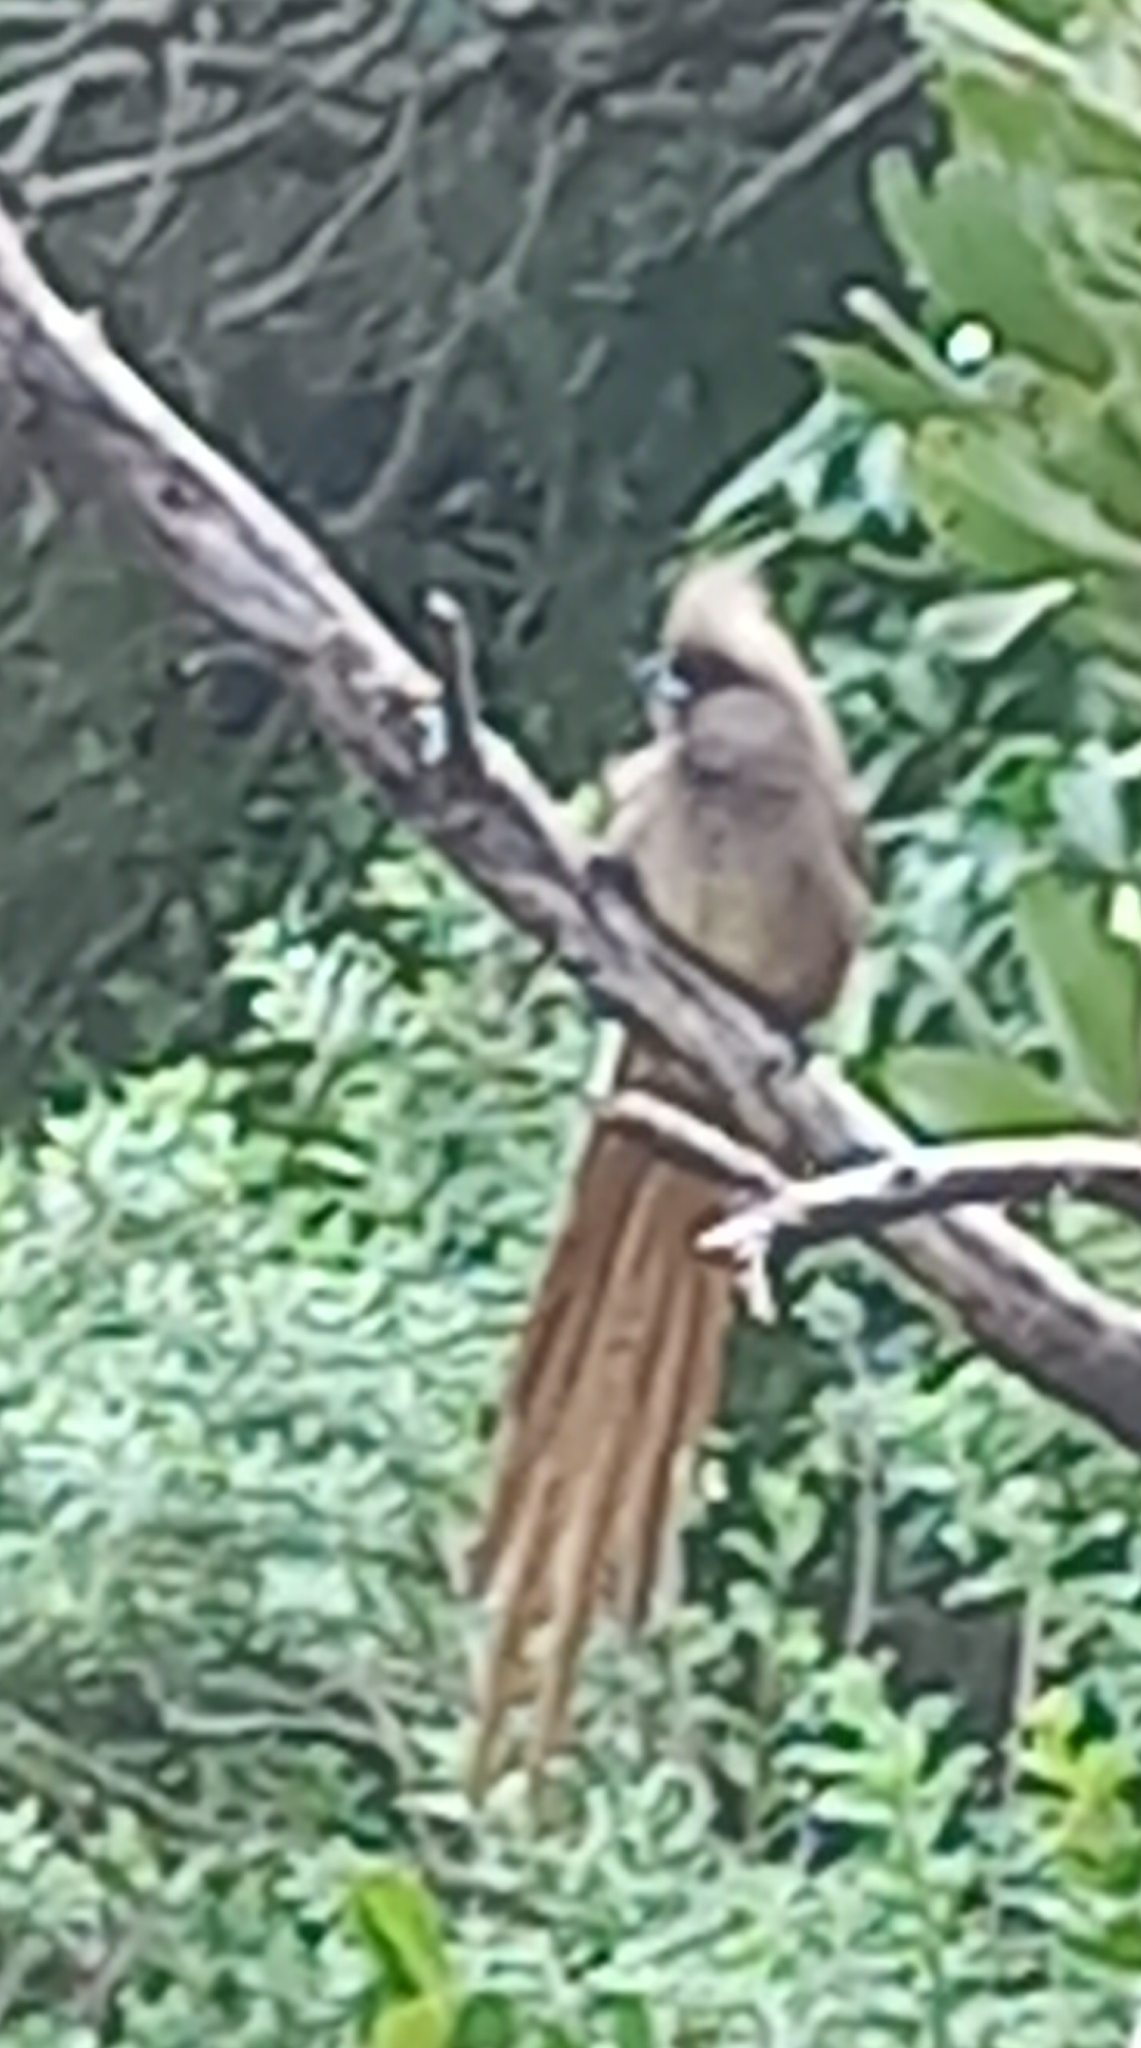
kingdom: Animalia
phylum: Chordata
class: Aves
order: Coliiformes
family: Coliidae
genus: Colius
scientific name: Colius striatus
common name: Speckled mousebird
